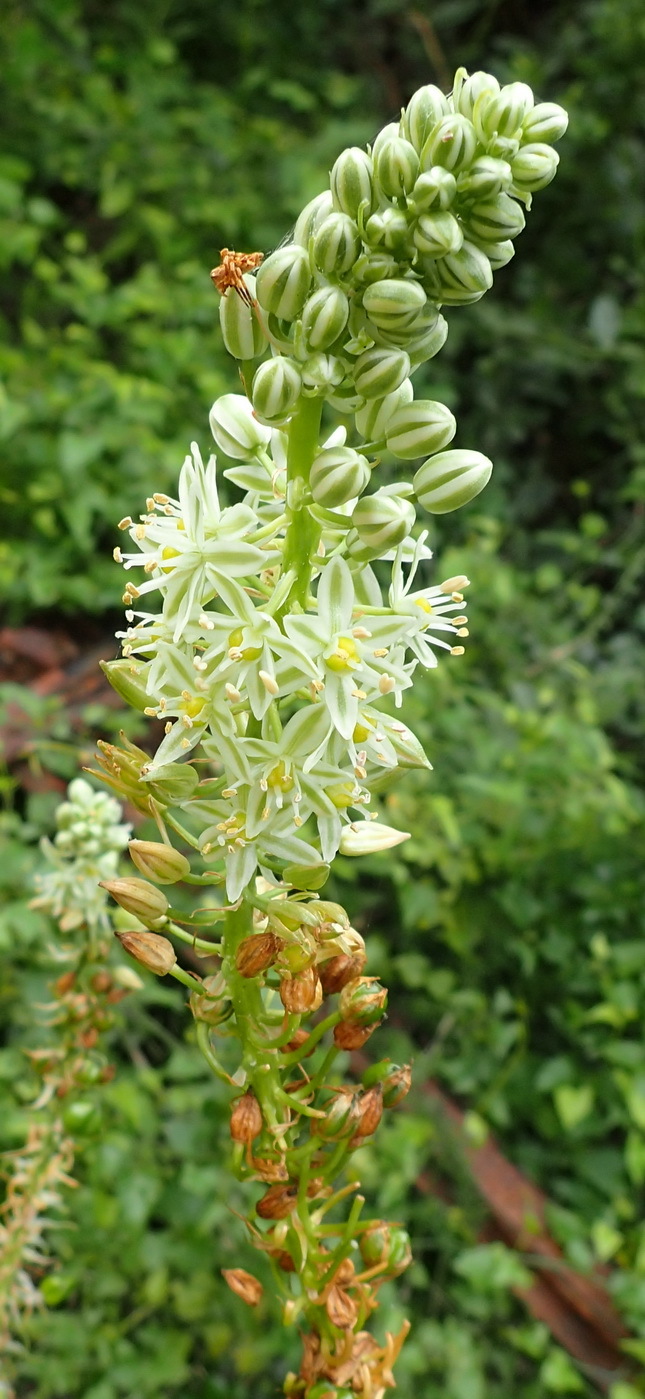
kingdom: Plantae
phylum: Tracheophyta
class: Liliopsida
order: Asparagales
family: Asparagaceae
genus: Albuca
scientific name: Albuca bracteata
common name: Sea-onion
